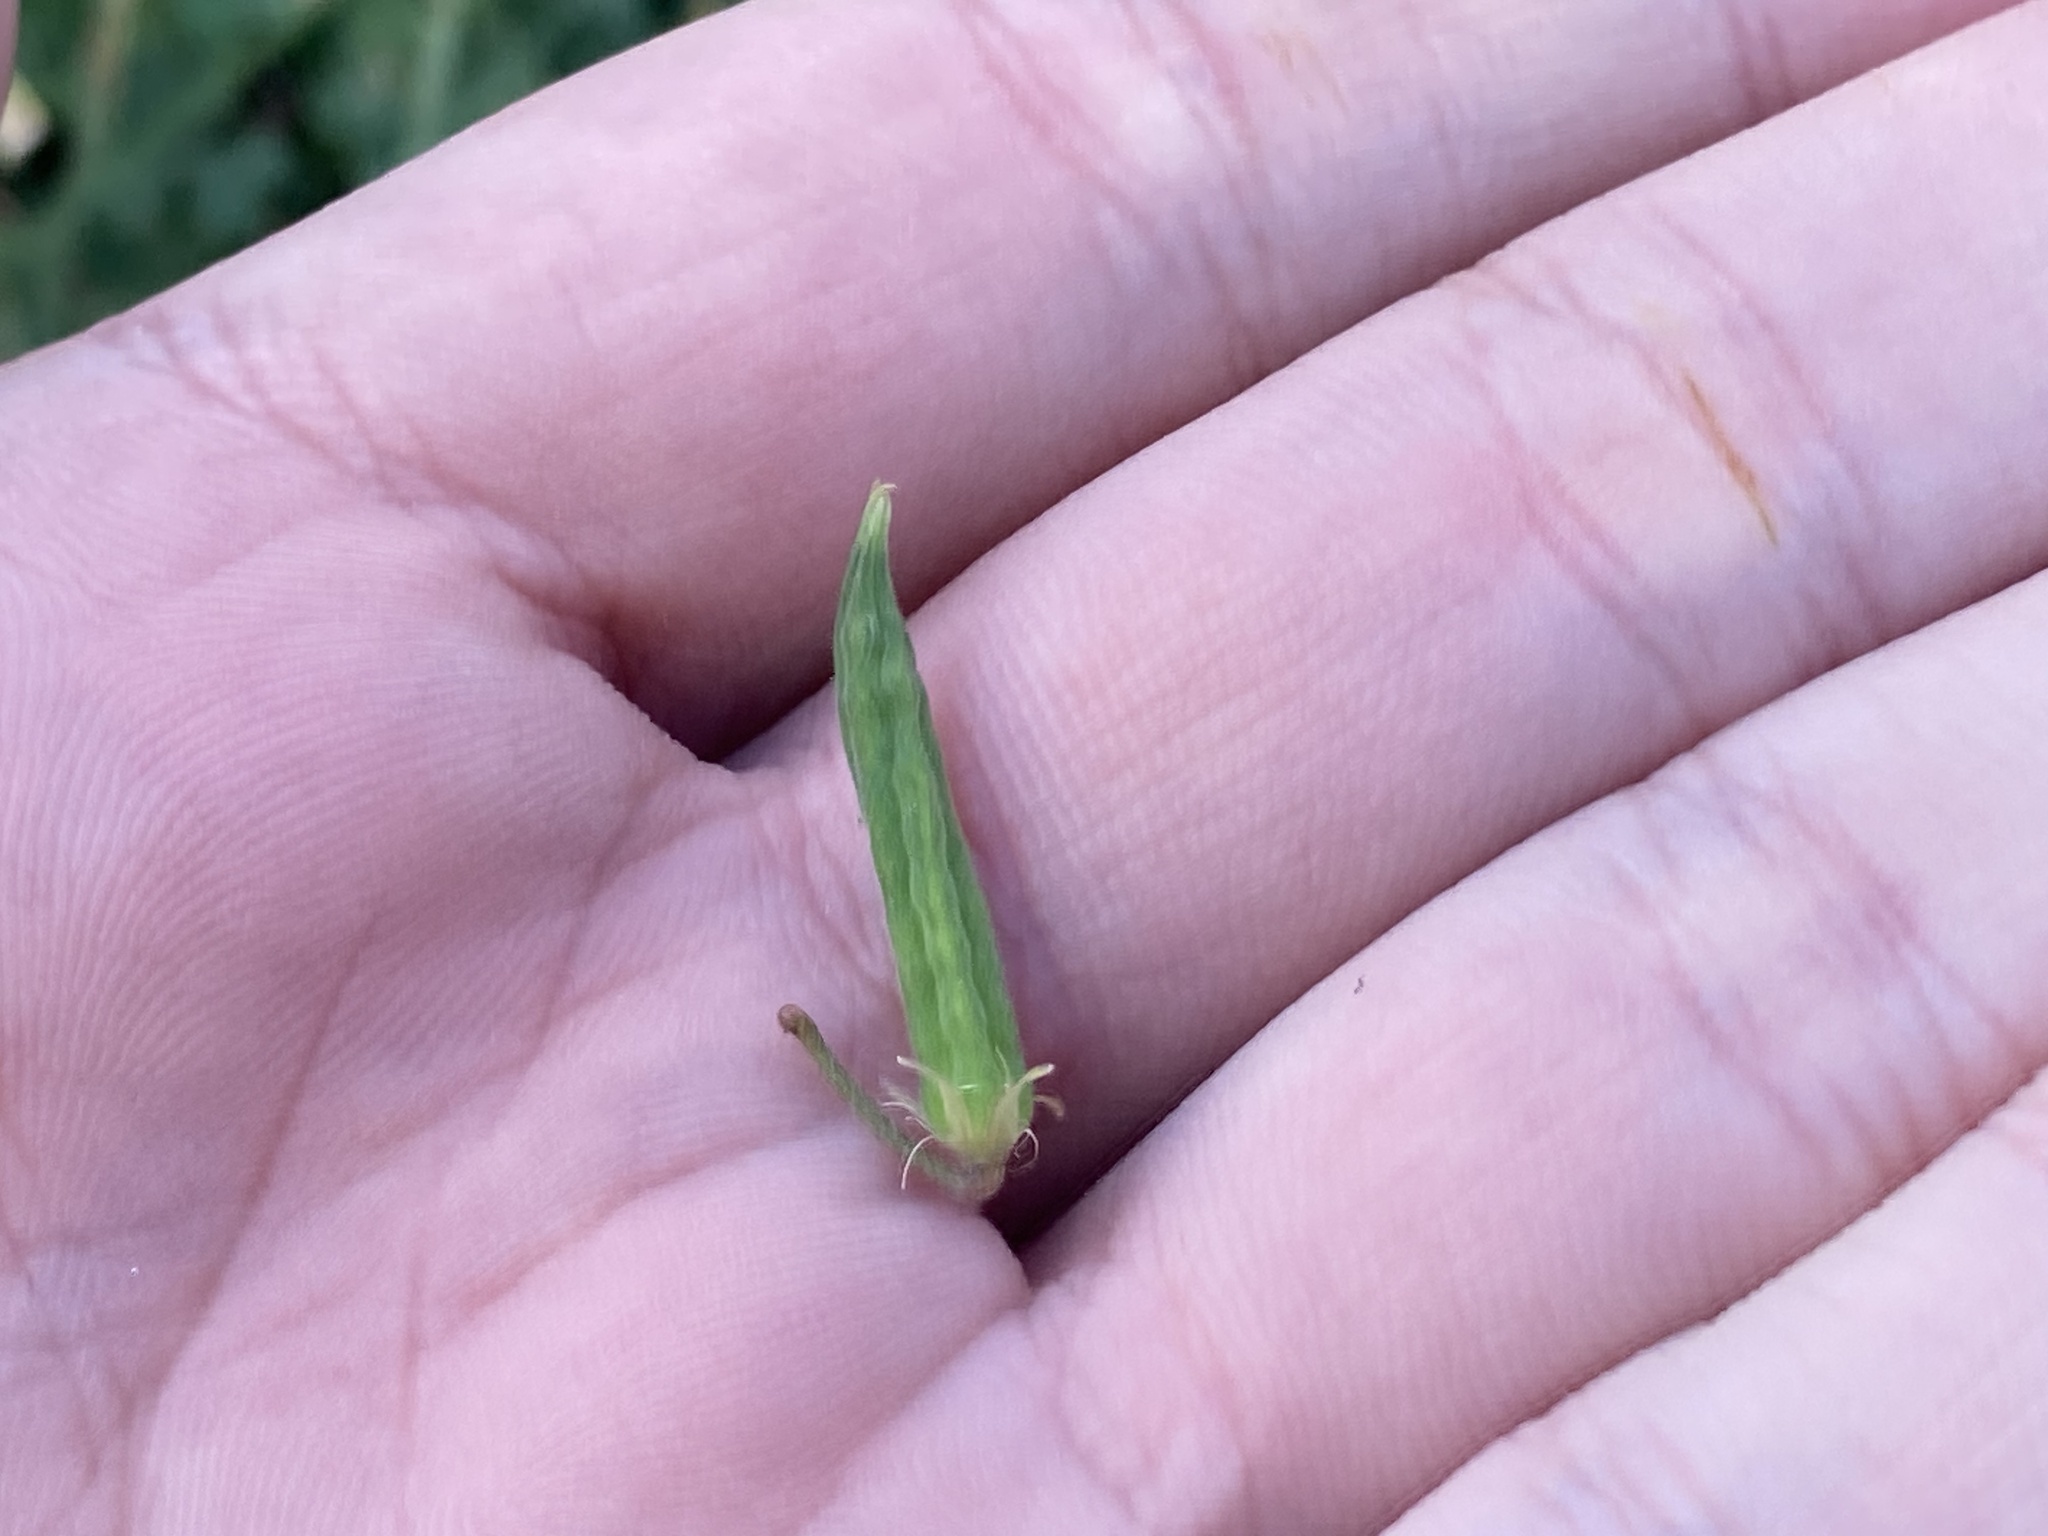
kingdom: Plantae
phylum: Tracheophyta
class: Magnoliopsida
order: Oxalidales
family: Oxalidaceae
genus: Oxalis
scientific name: Oxalis corniculata
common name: Procumbent yellow-sorrel
